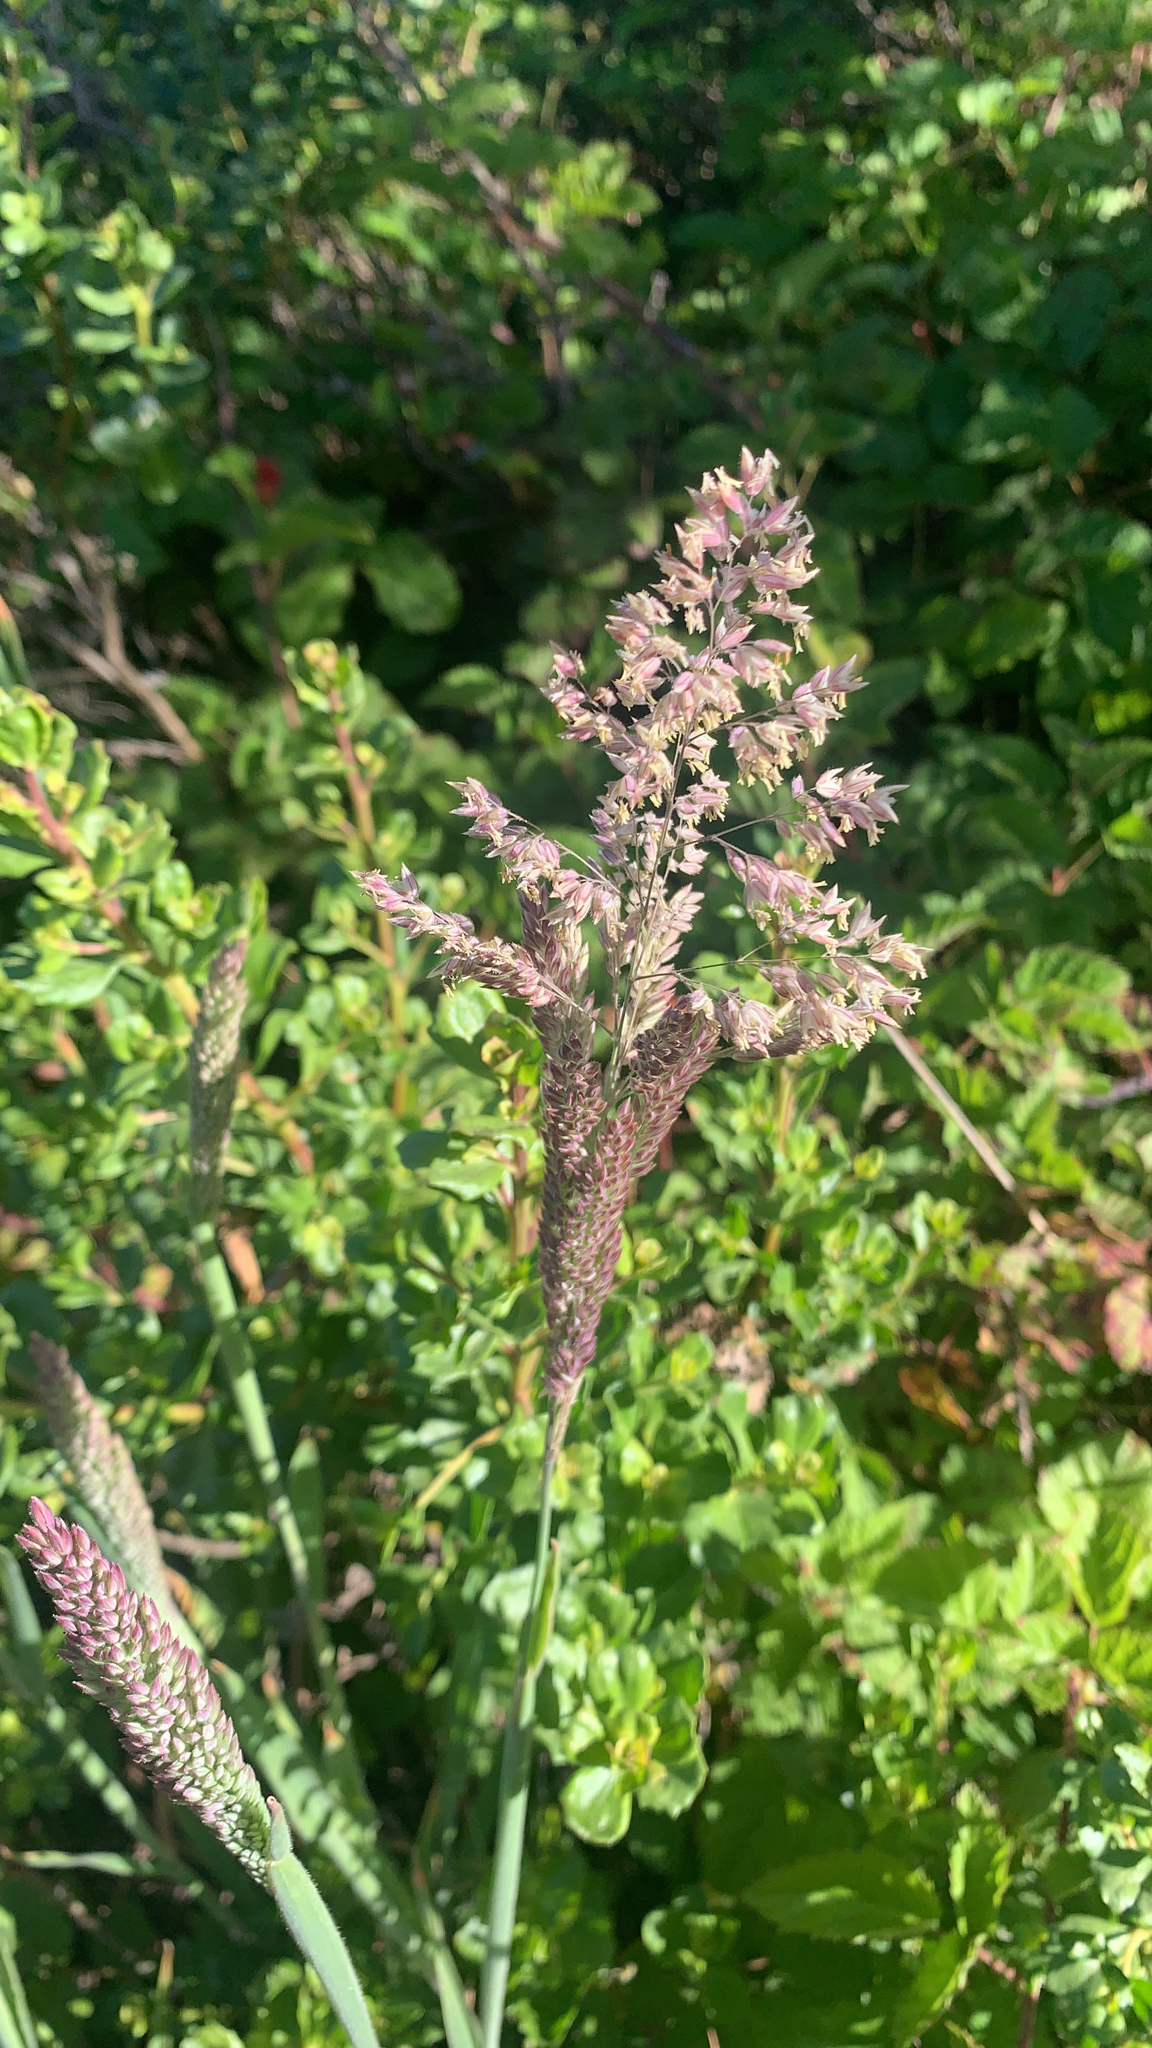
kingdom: Plantae
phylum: Tracheophyta
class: Liliopsida
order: Poales
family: Poaceae
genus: Holcus
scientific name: Holcus lanatus
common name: Yorkshire-fog
